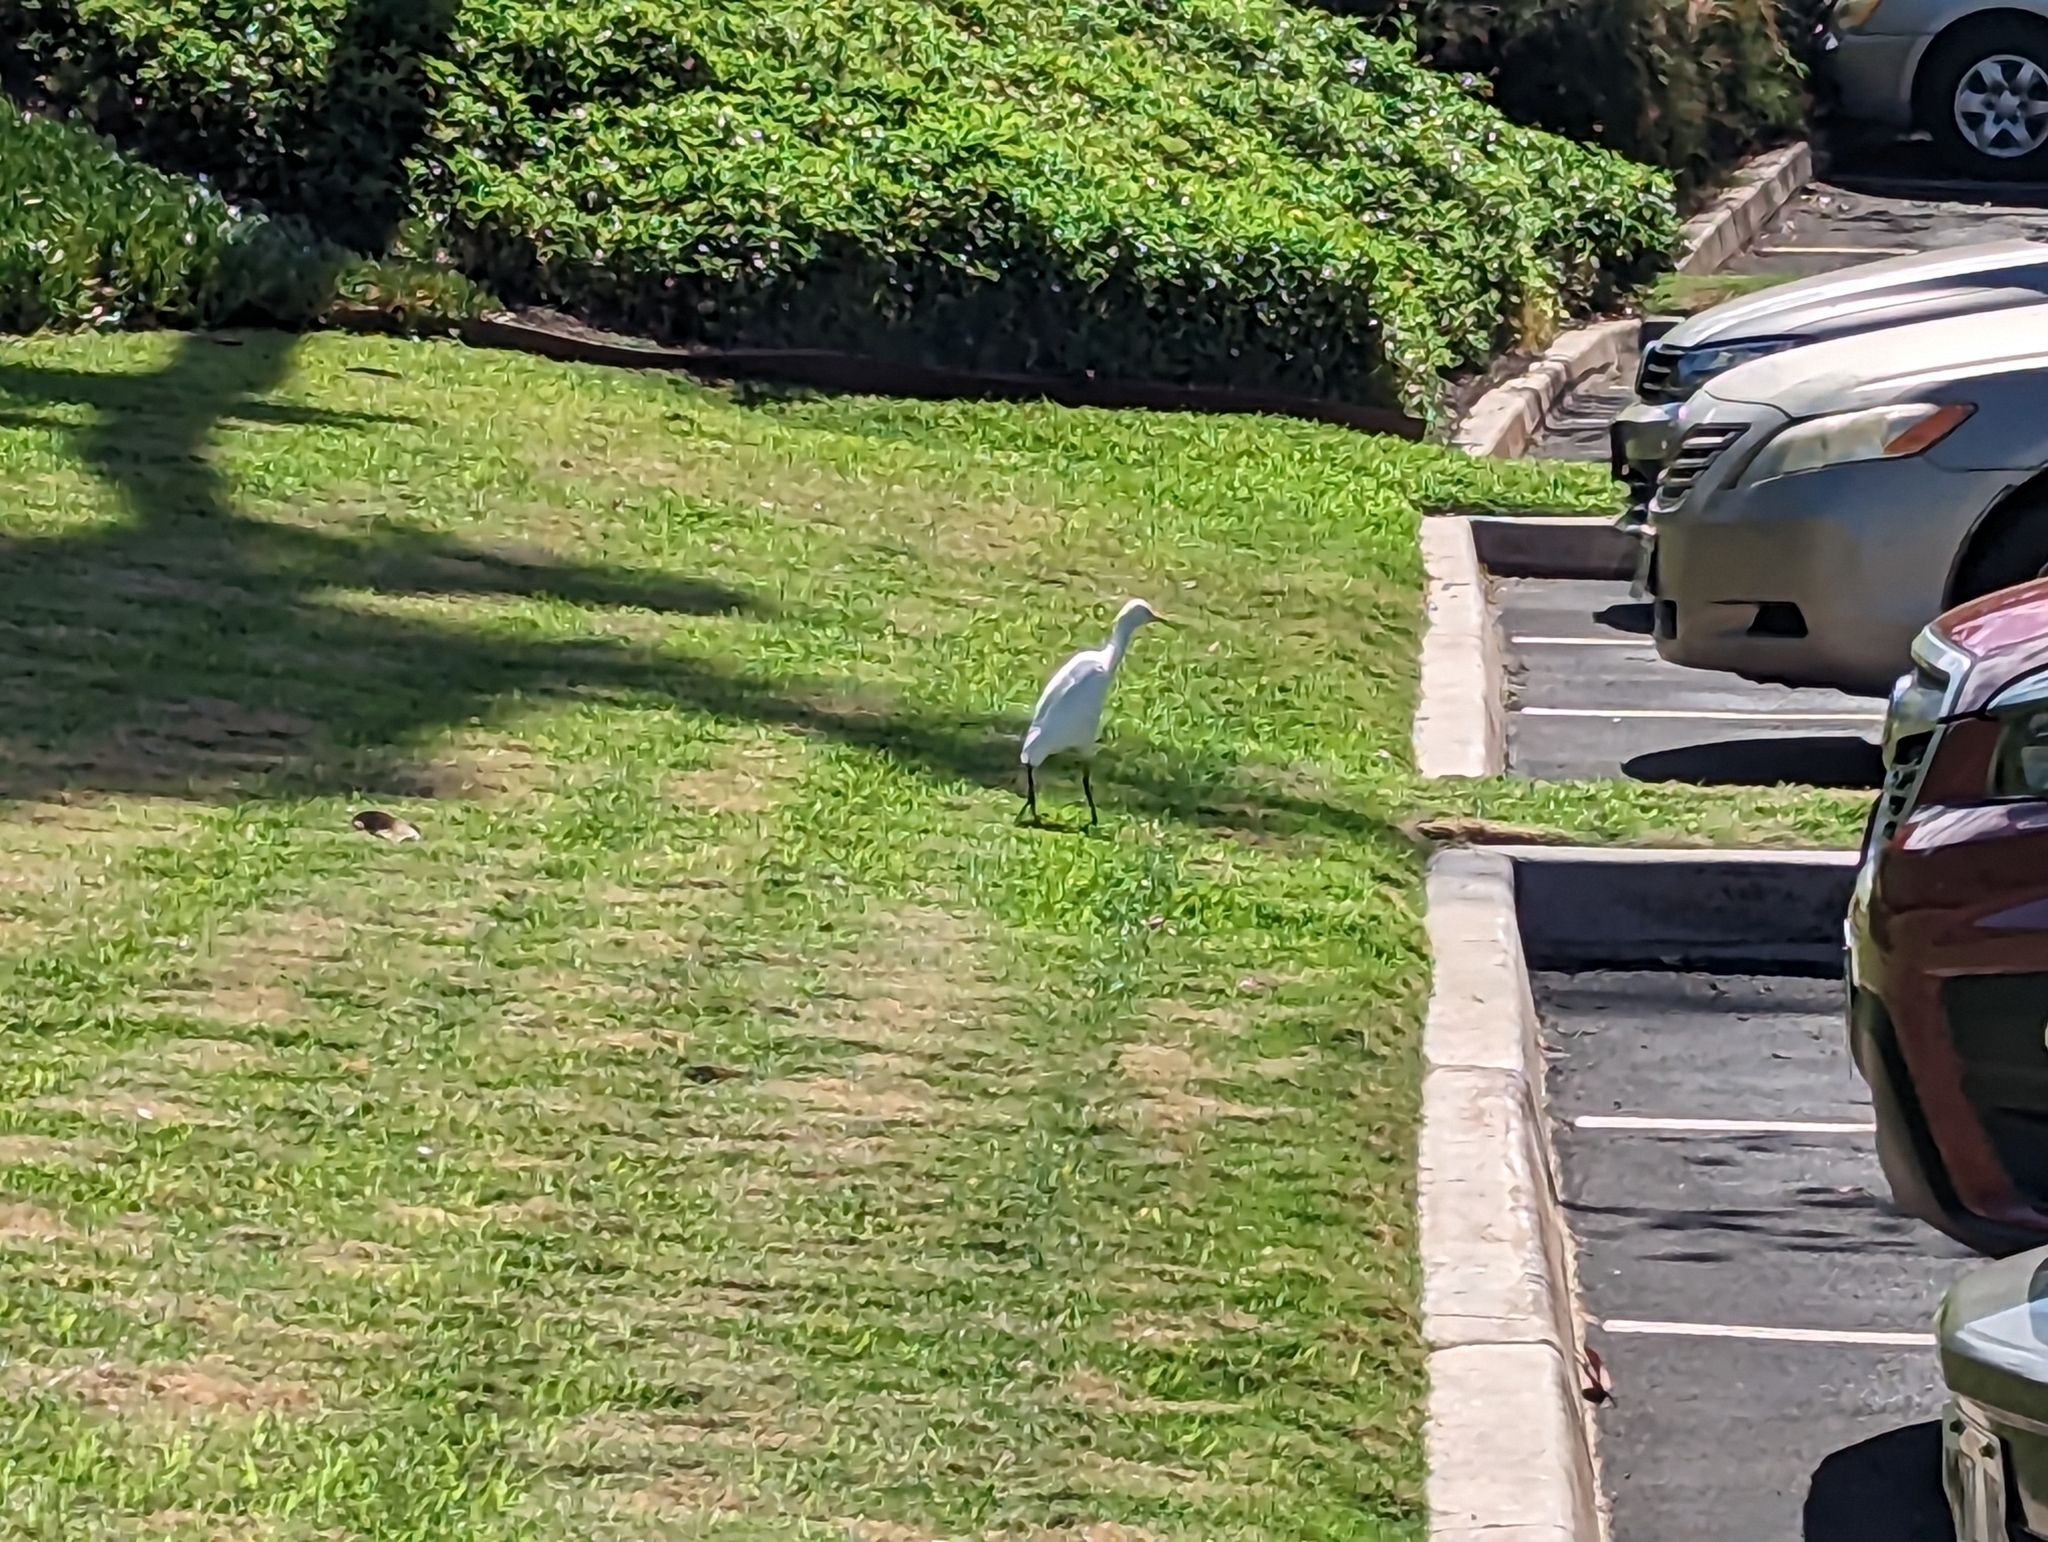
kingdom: Animalia
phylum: Chordata
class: Aves
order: Pelecaniformes
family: Ardeidae
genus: Bubulcus
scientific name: Bubulcus ibis
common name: Cattle egret
